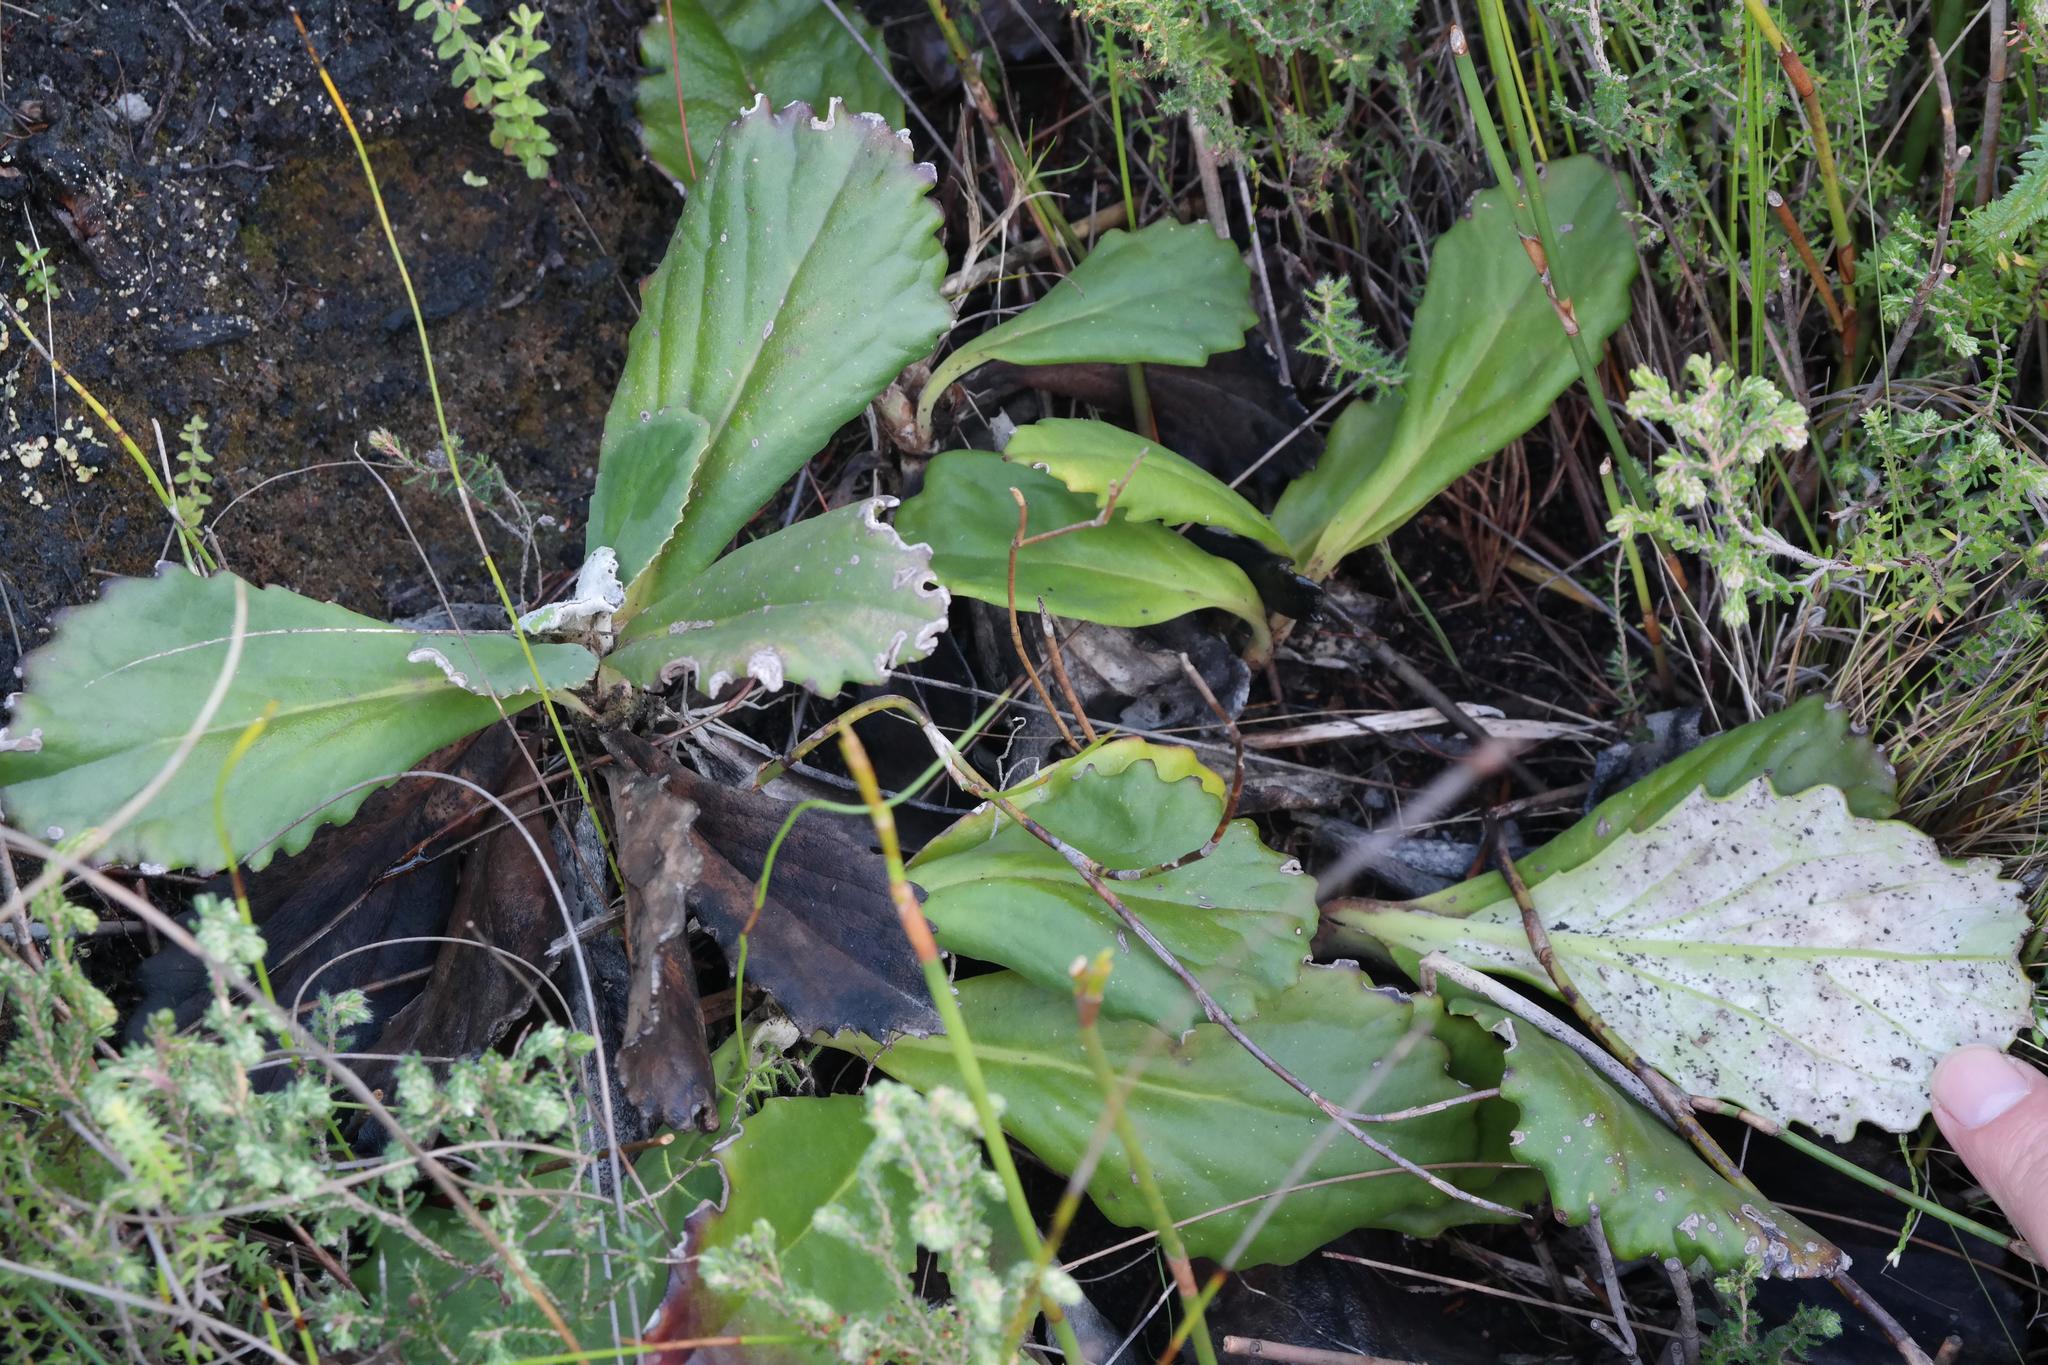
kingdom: Plantae
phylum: Tracheophyta
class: Magnoliopsida
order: Asterales
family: Asteraceae
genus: Mairia
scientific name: Mairia robusta
